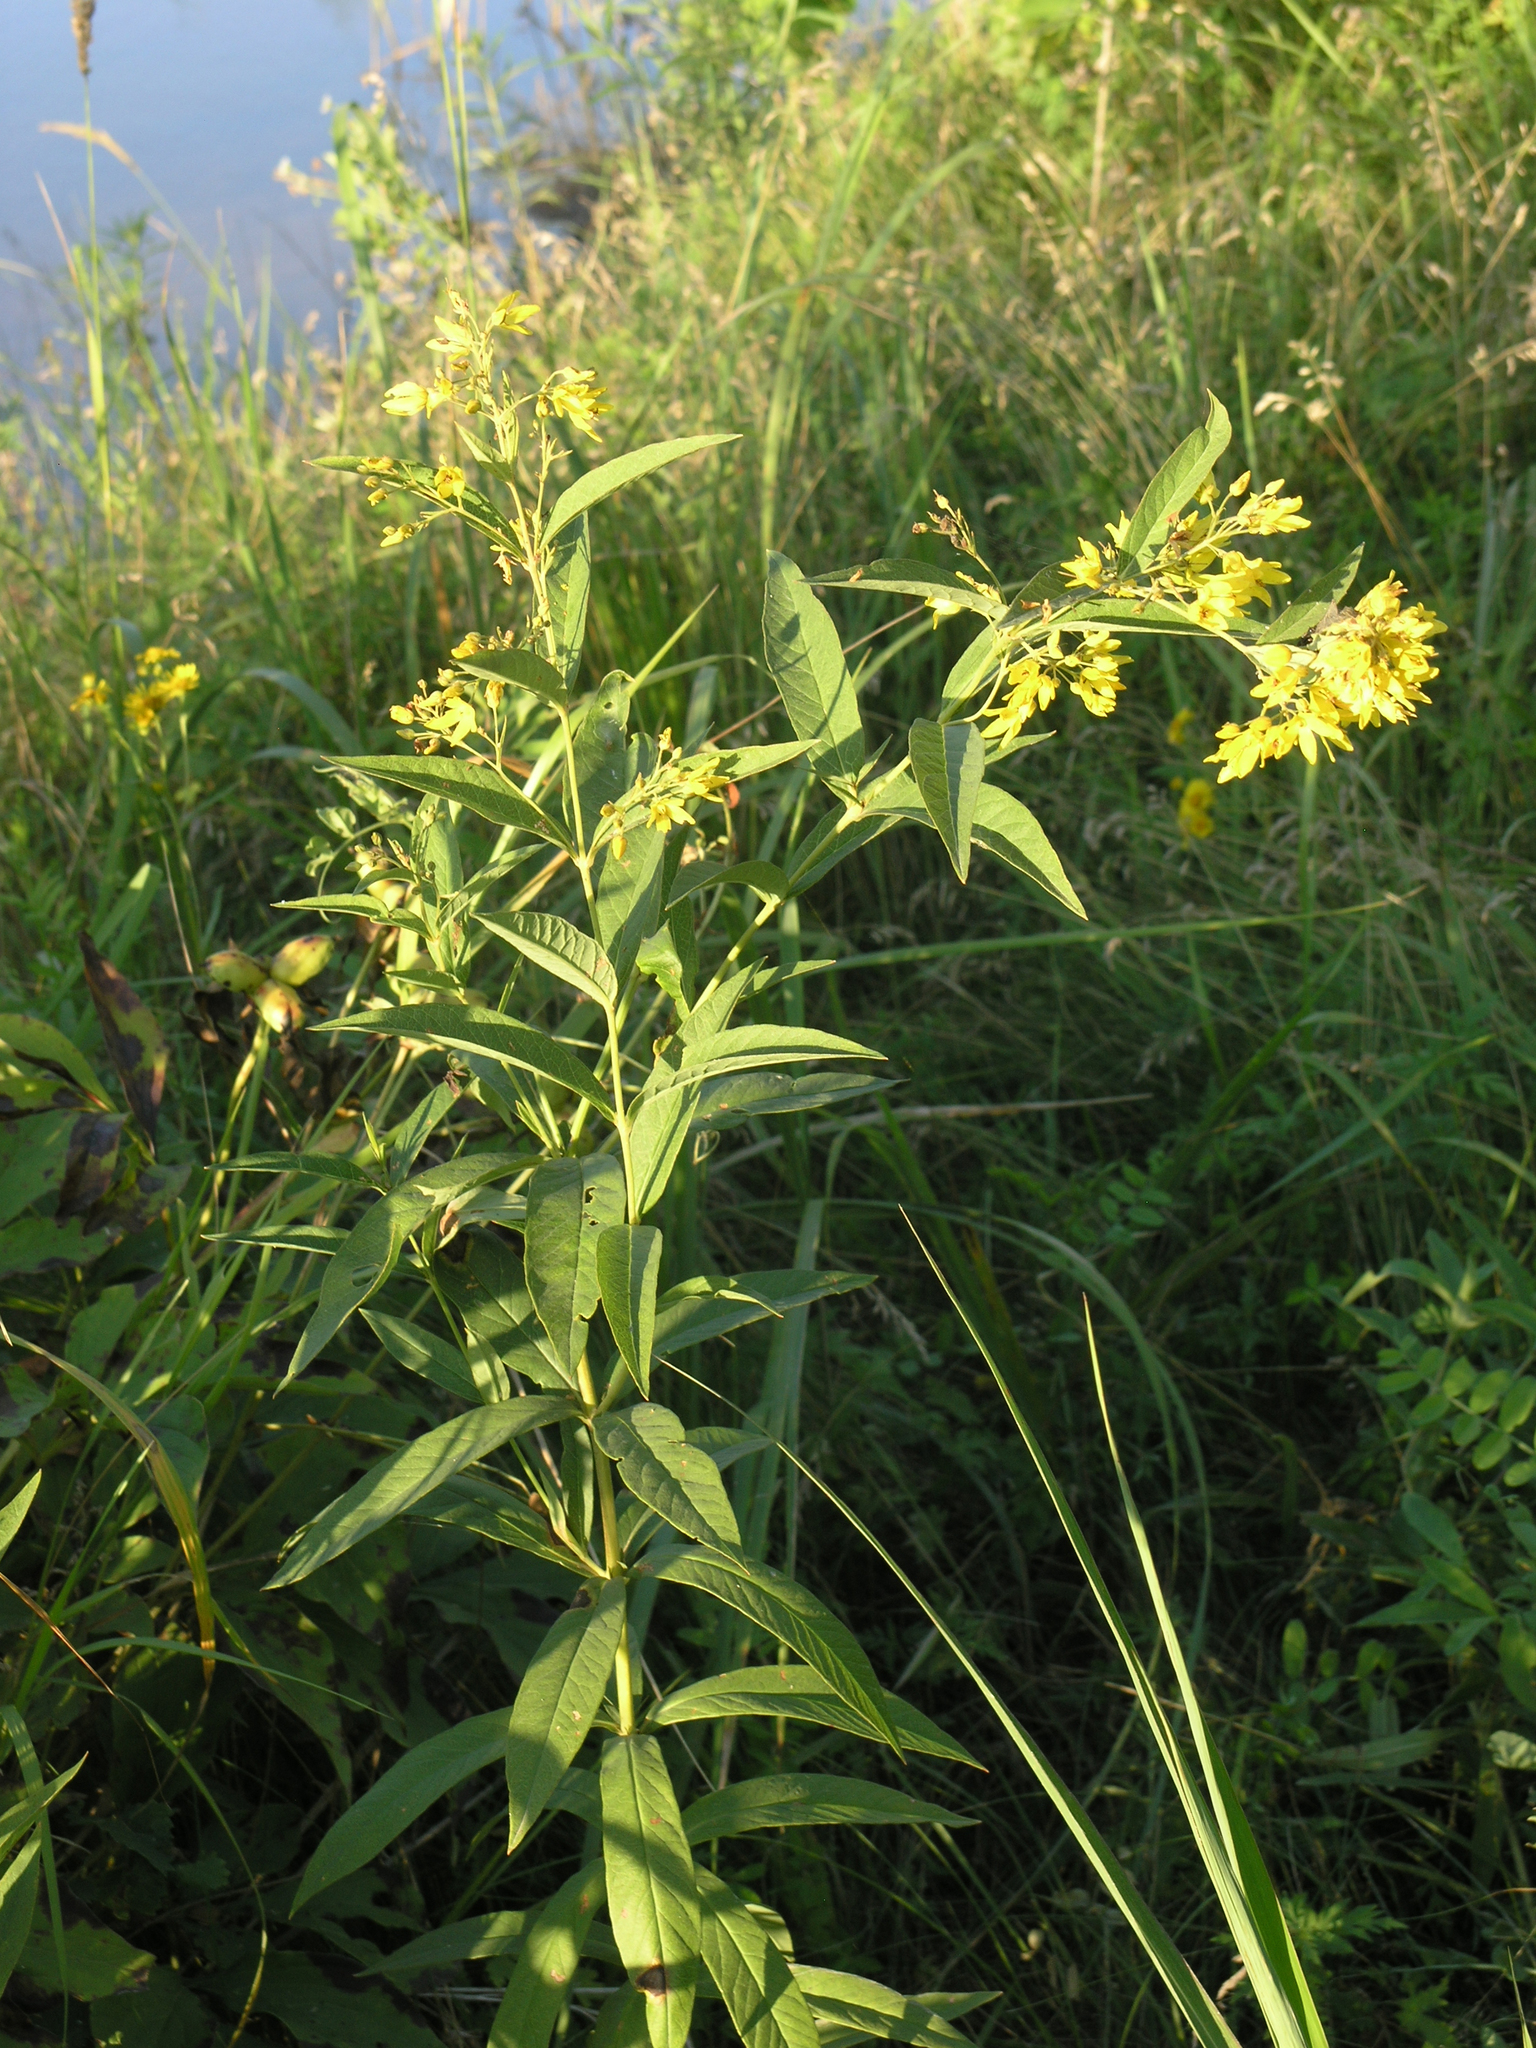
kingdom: Plantae
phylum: Tracheophyta
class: Magnoliopsida
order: Ericales
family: Primulaceae
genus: Lysimachia
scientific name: Lysimachia davurica
